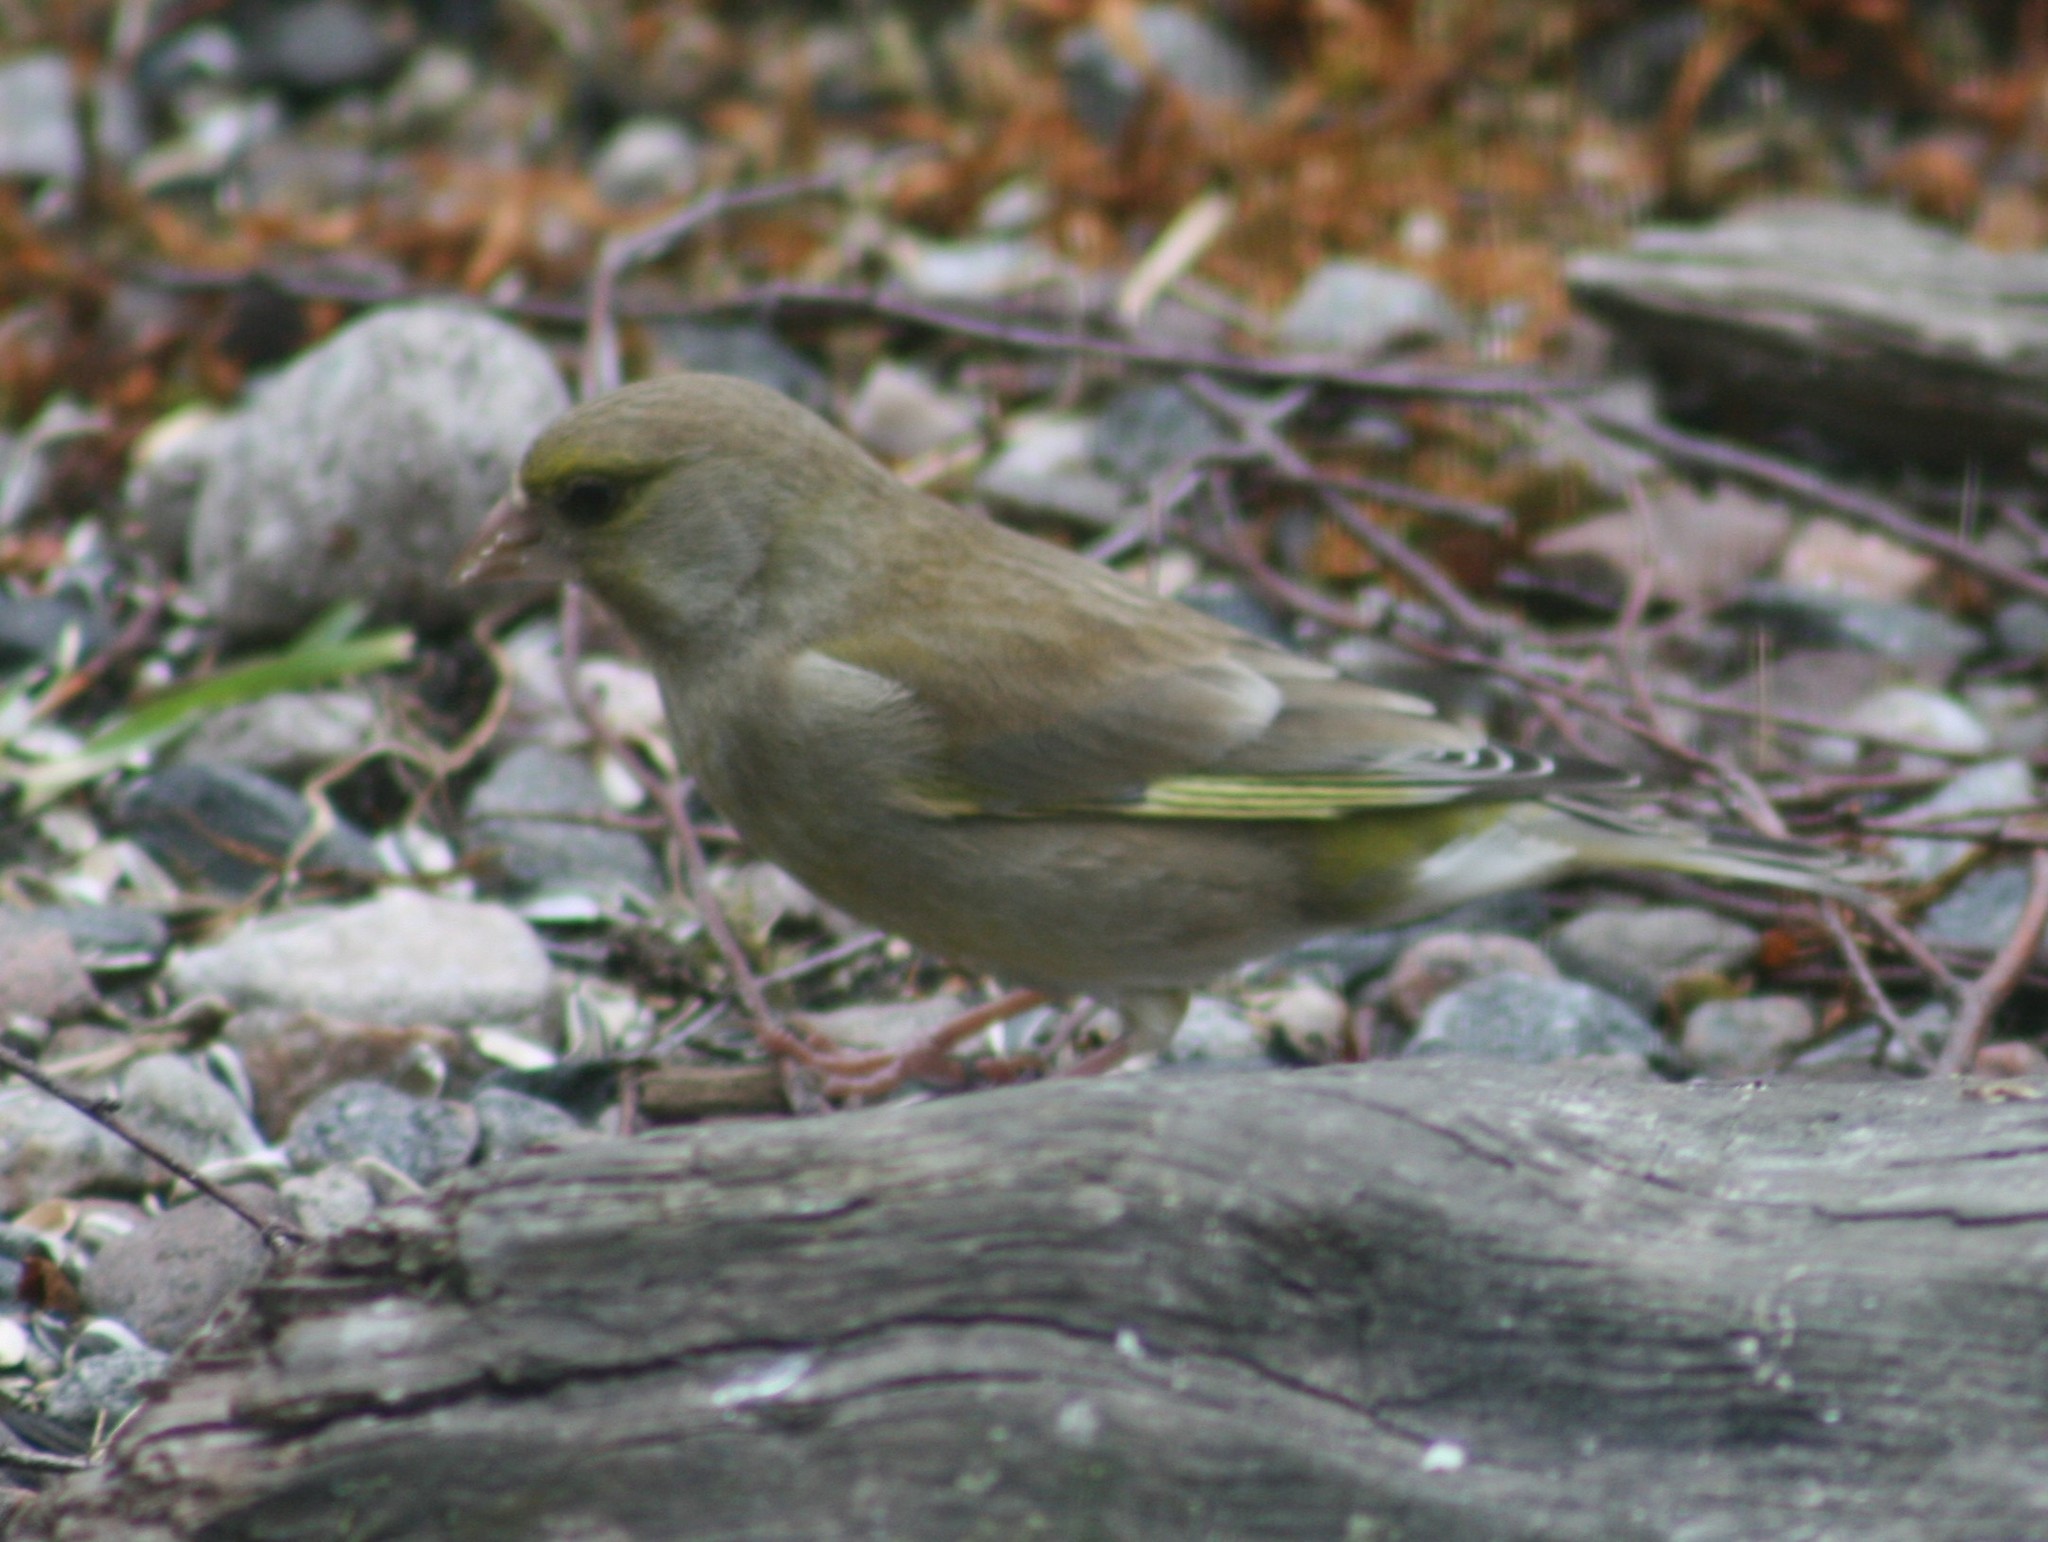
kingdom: Plantae
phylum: Tracheophyta
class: Liliopsida
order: Poales
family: Poaceae
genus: Chloris
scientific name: Chloris chloris
